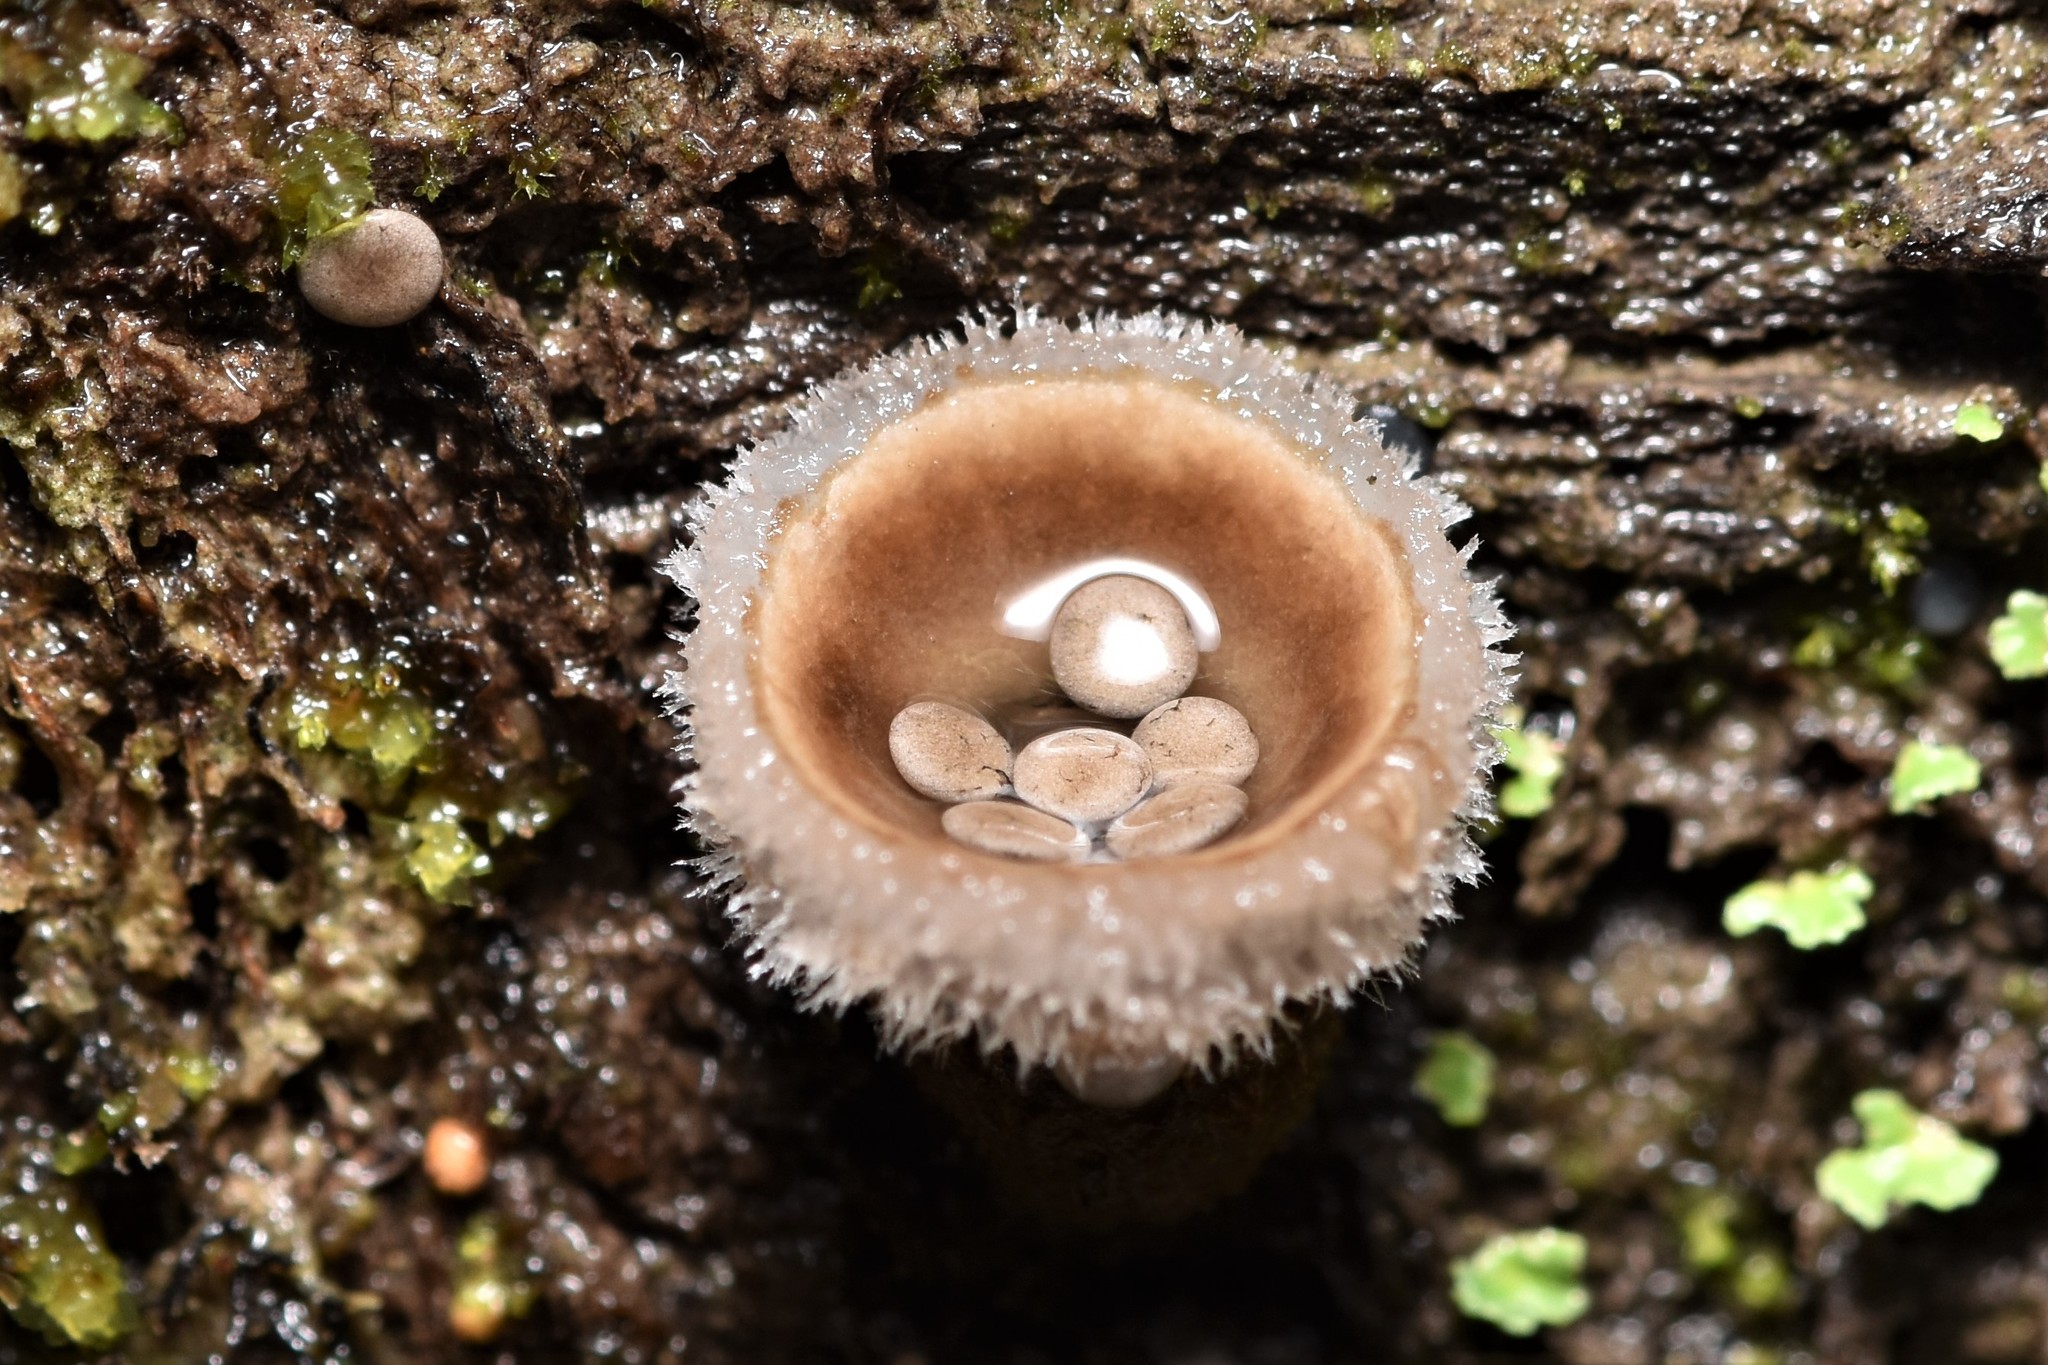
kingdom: Fungi
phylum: Basidiomycota
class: Agaricomycetes
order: Agaricales
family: Agaricaceae
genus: Nidula
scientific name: Nidula candida
